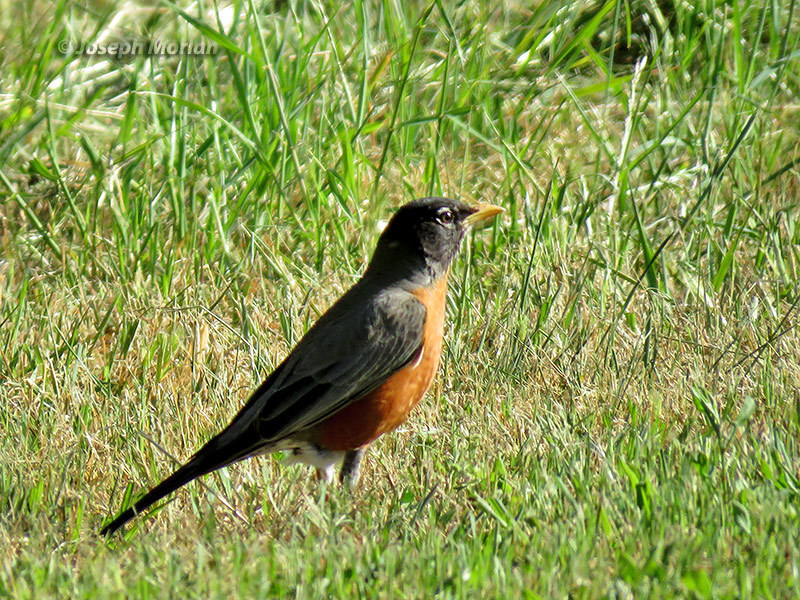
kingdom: Animalia
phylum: Chordata
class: Aves
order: Passeriformes
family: Turdidae
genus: Turdus
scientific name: Turdus migratorius
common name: American robin
